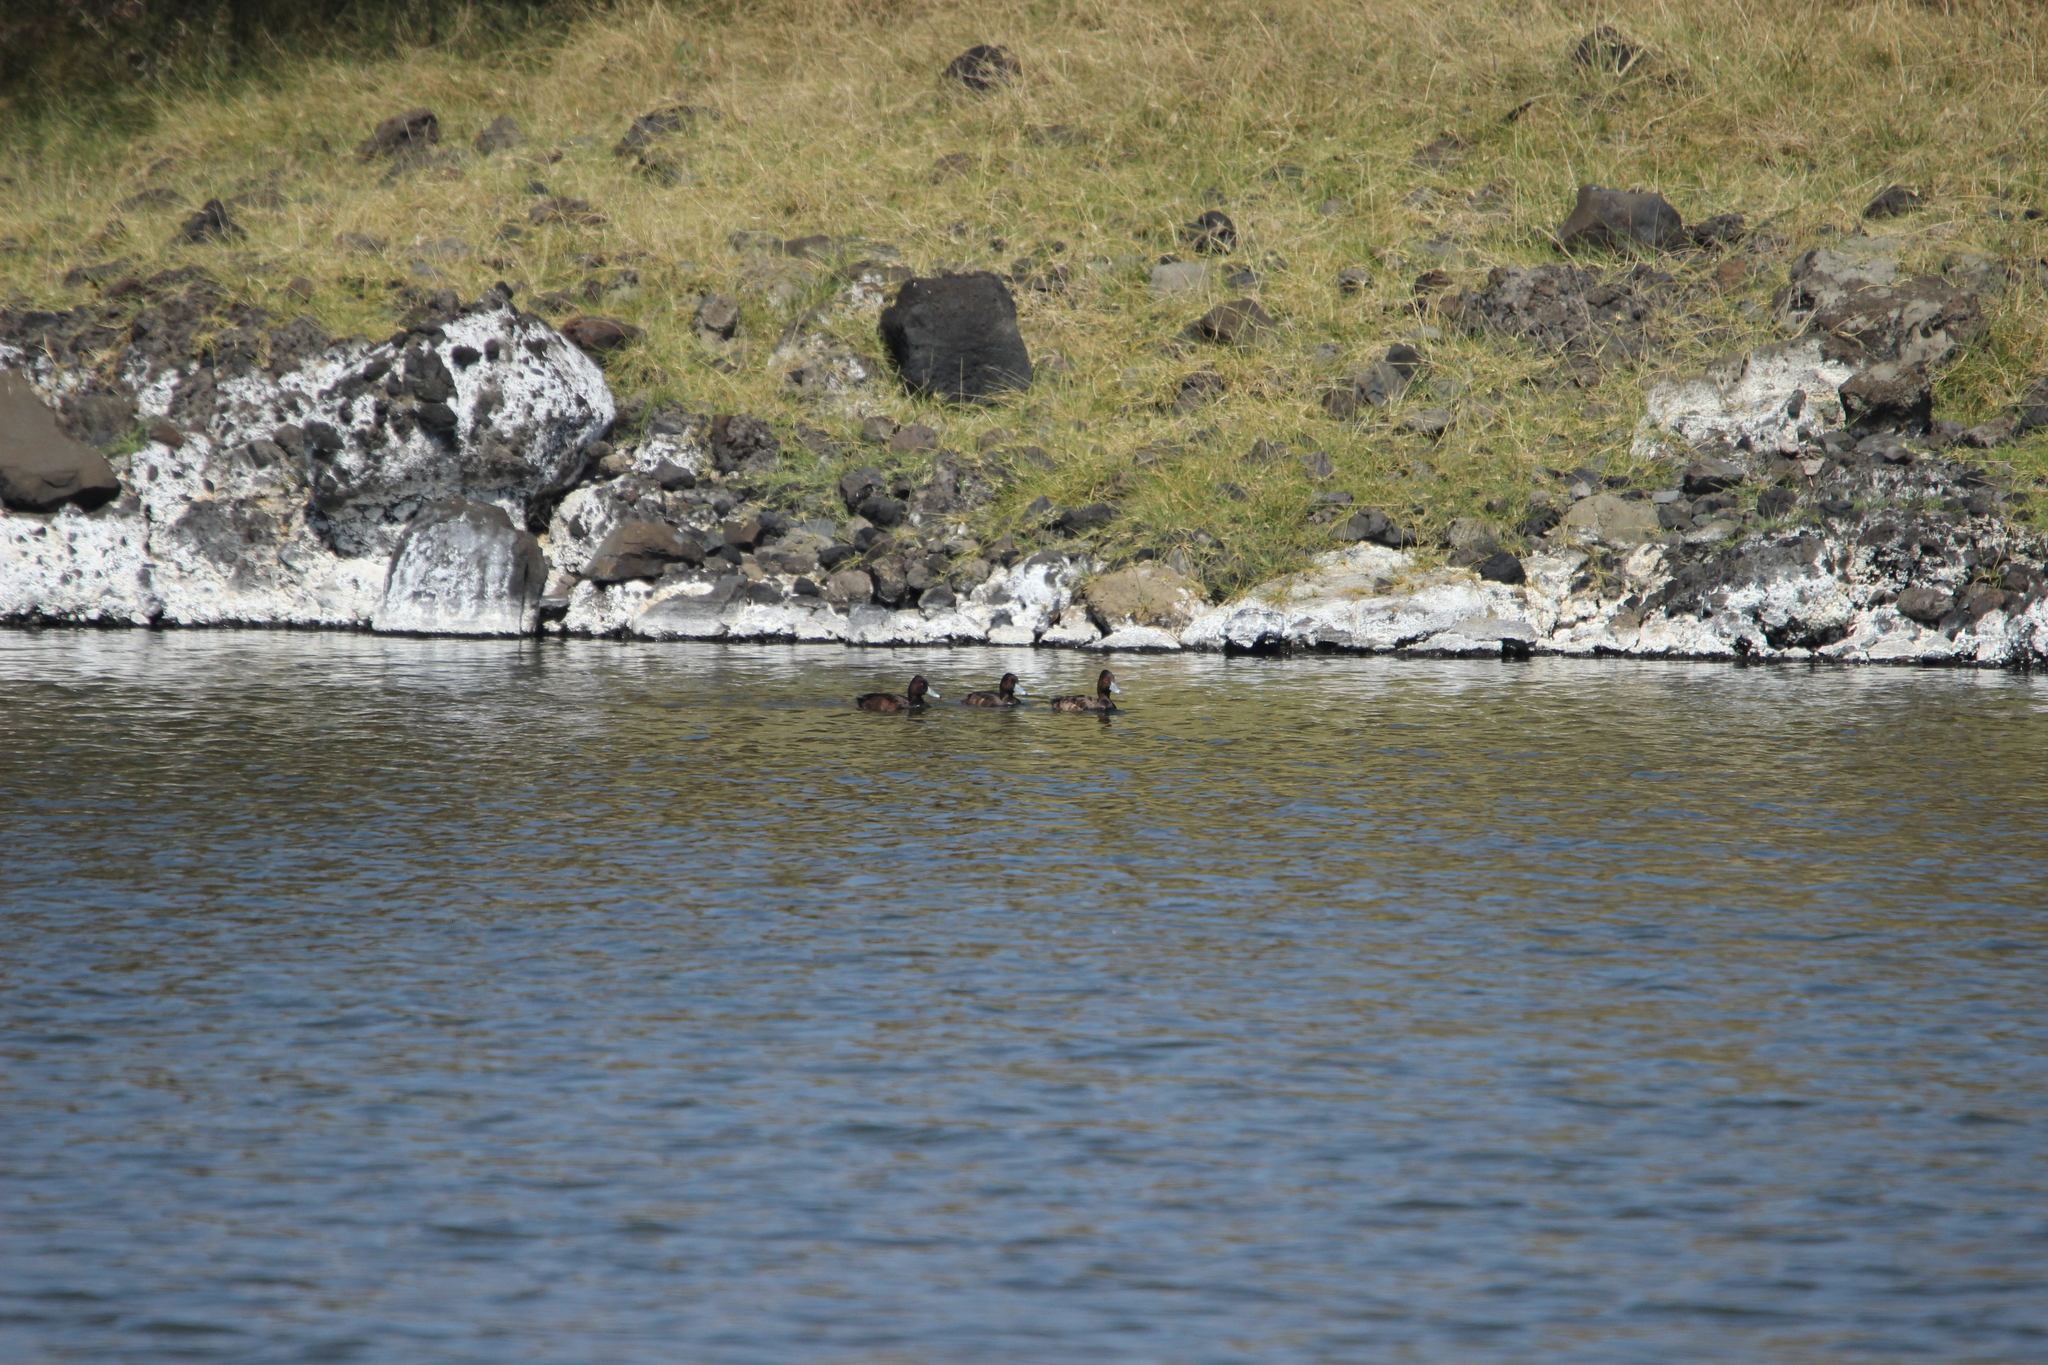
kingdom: Animalia
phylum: Chordata
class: Aves
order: Anseriformes
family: Anatidae
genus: Netta
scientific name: Netta erythrophthalma
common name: Southern pochard
